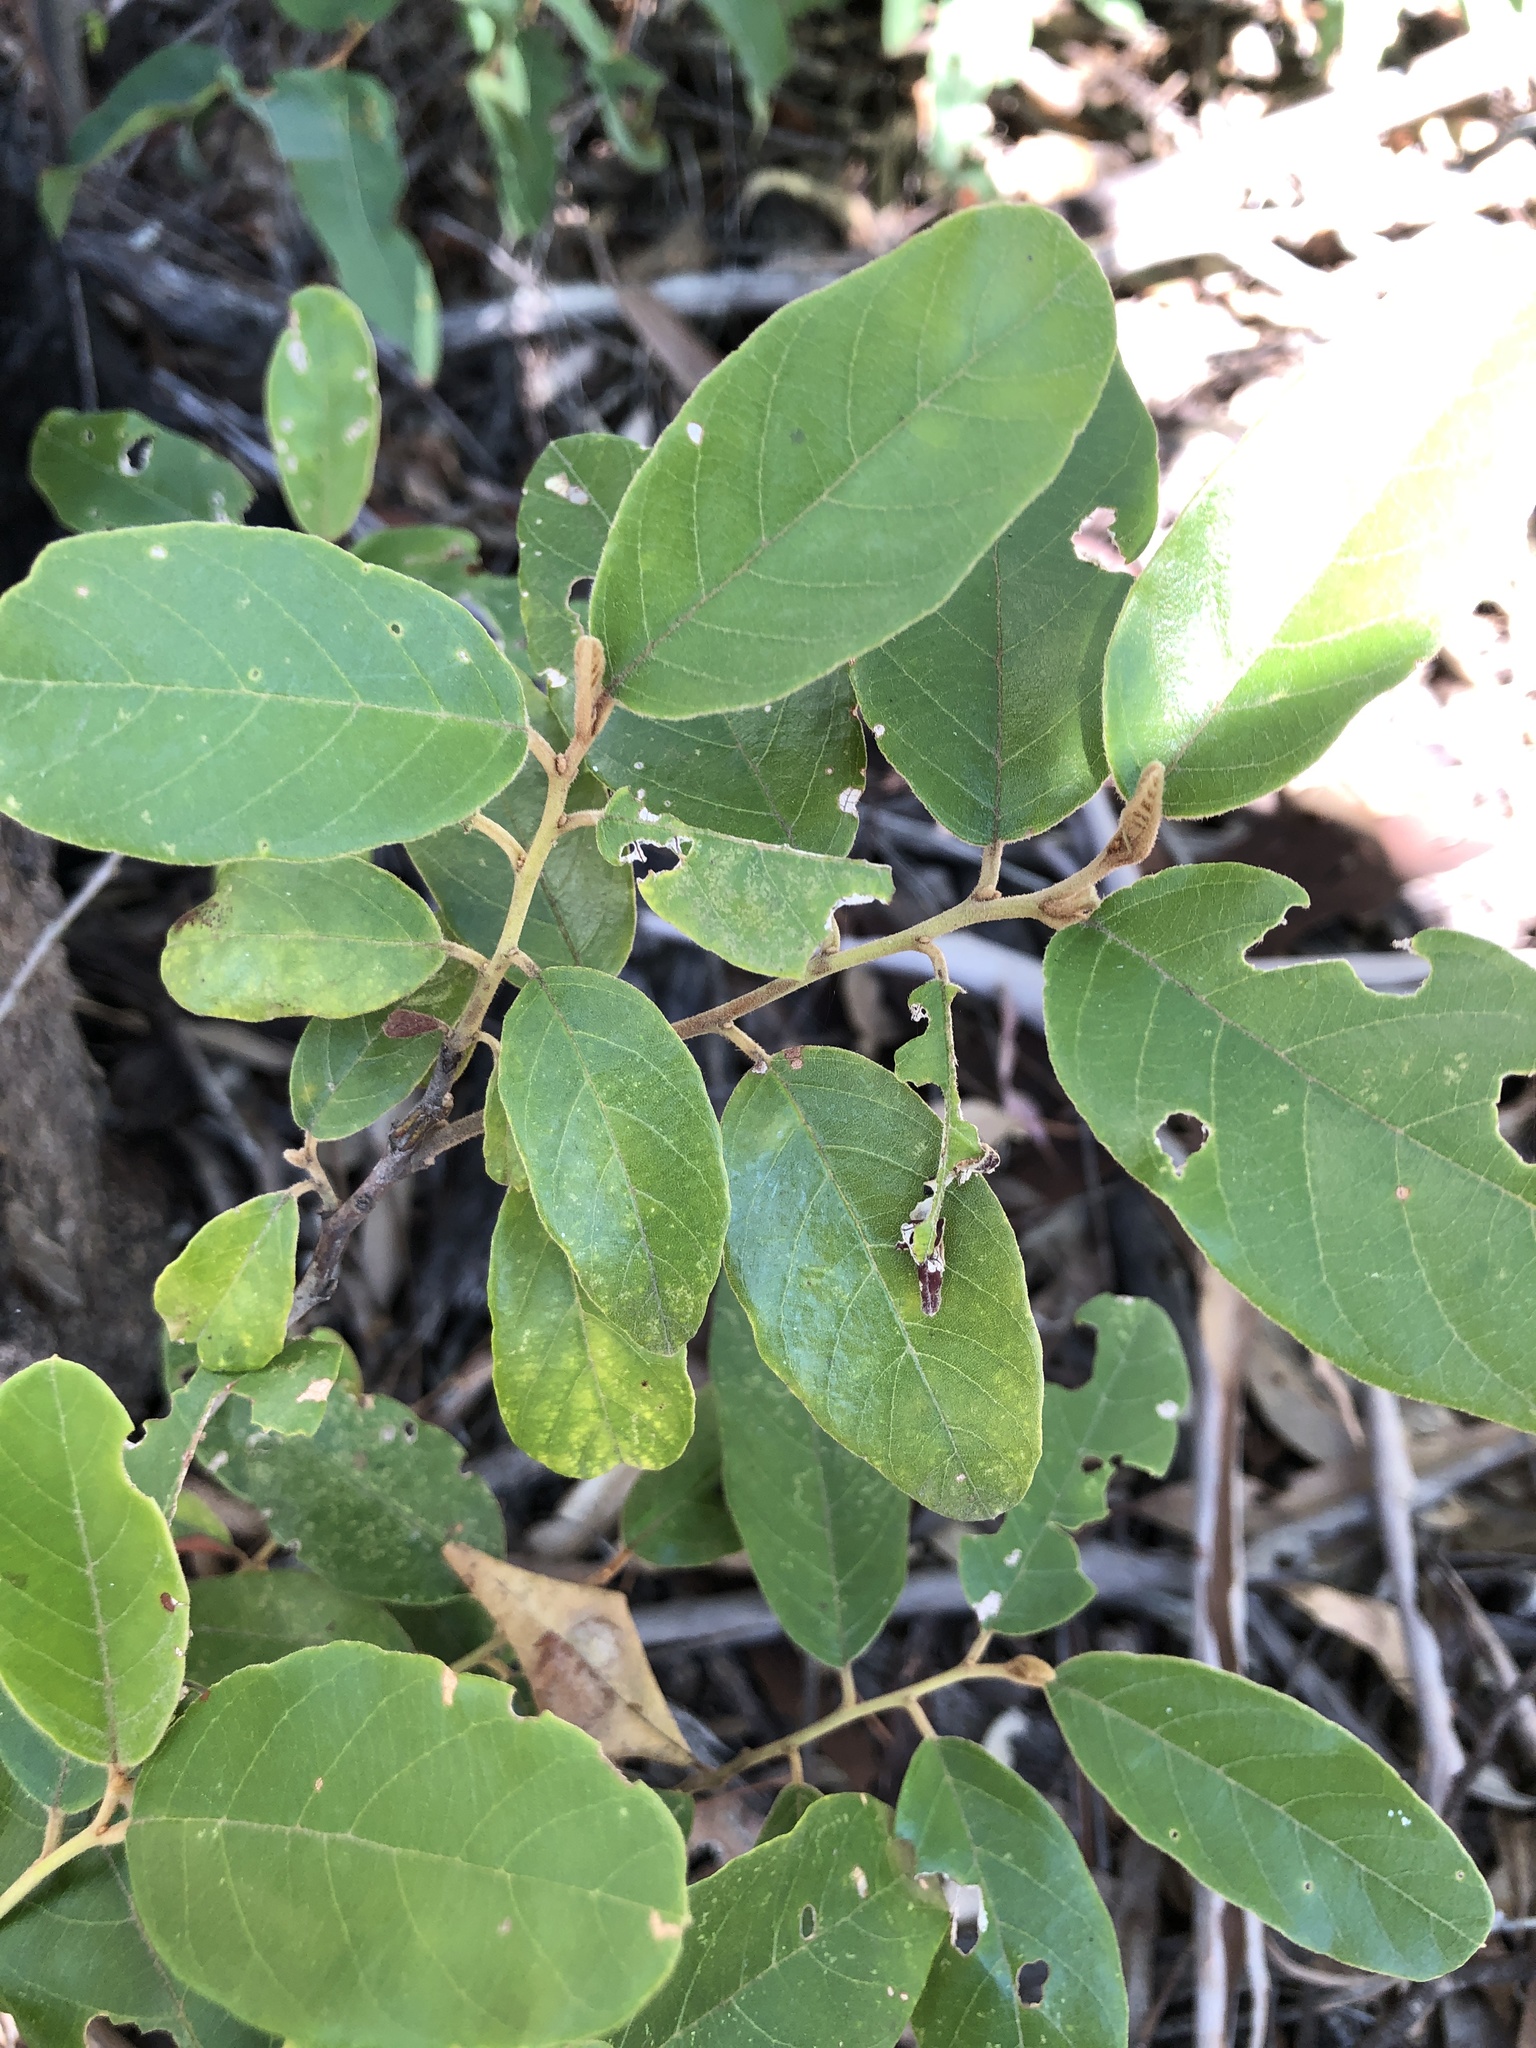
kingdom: Plantae
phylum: Tracheophyta
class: Magnoliopsida
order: Rosales
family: Rhamnaceae
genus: Alphitonia
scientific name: Alphitonia excelsa
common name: Red ash
